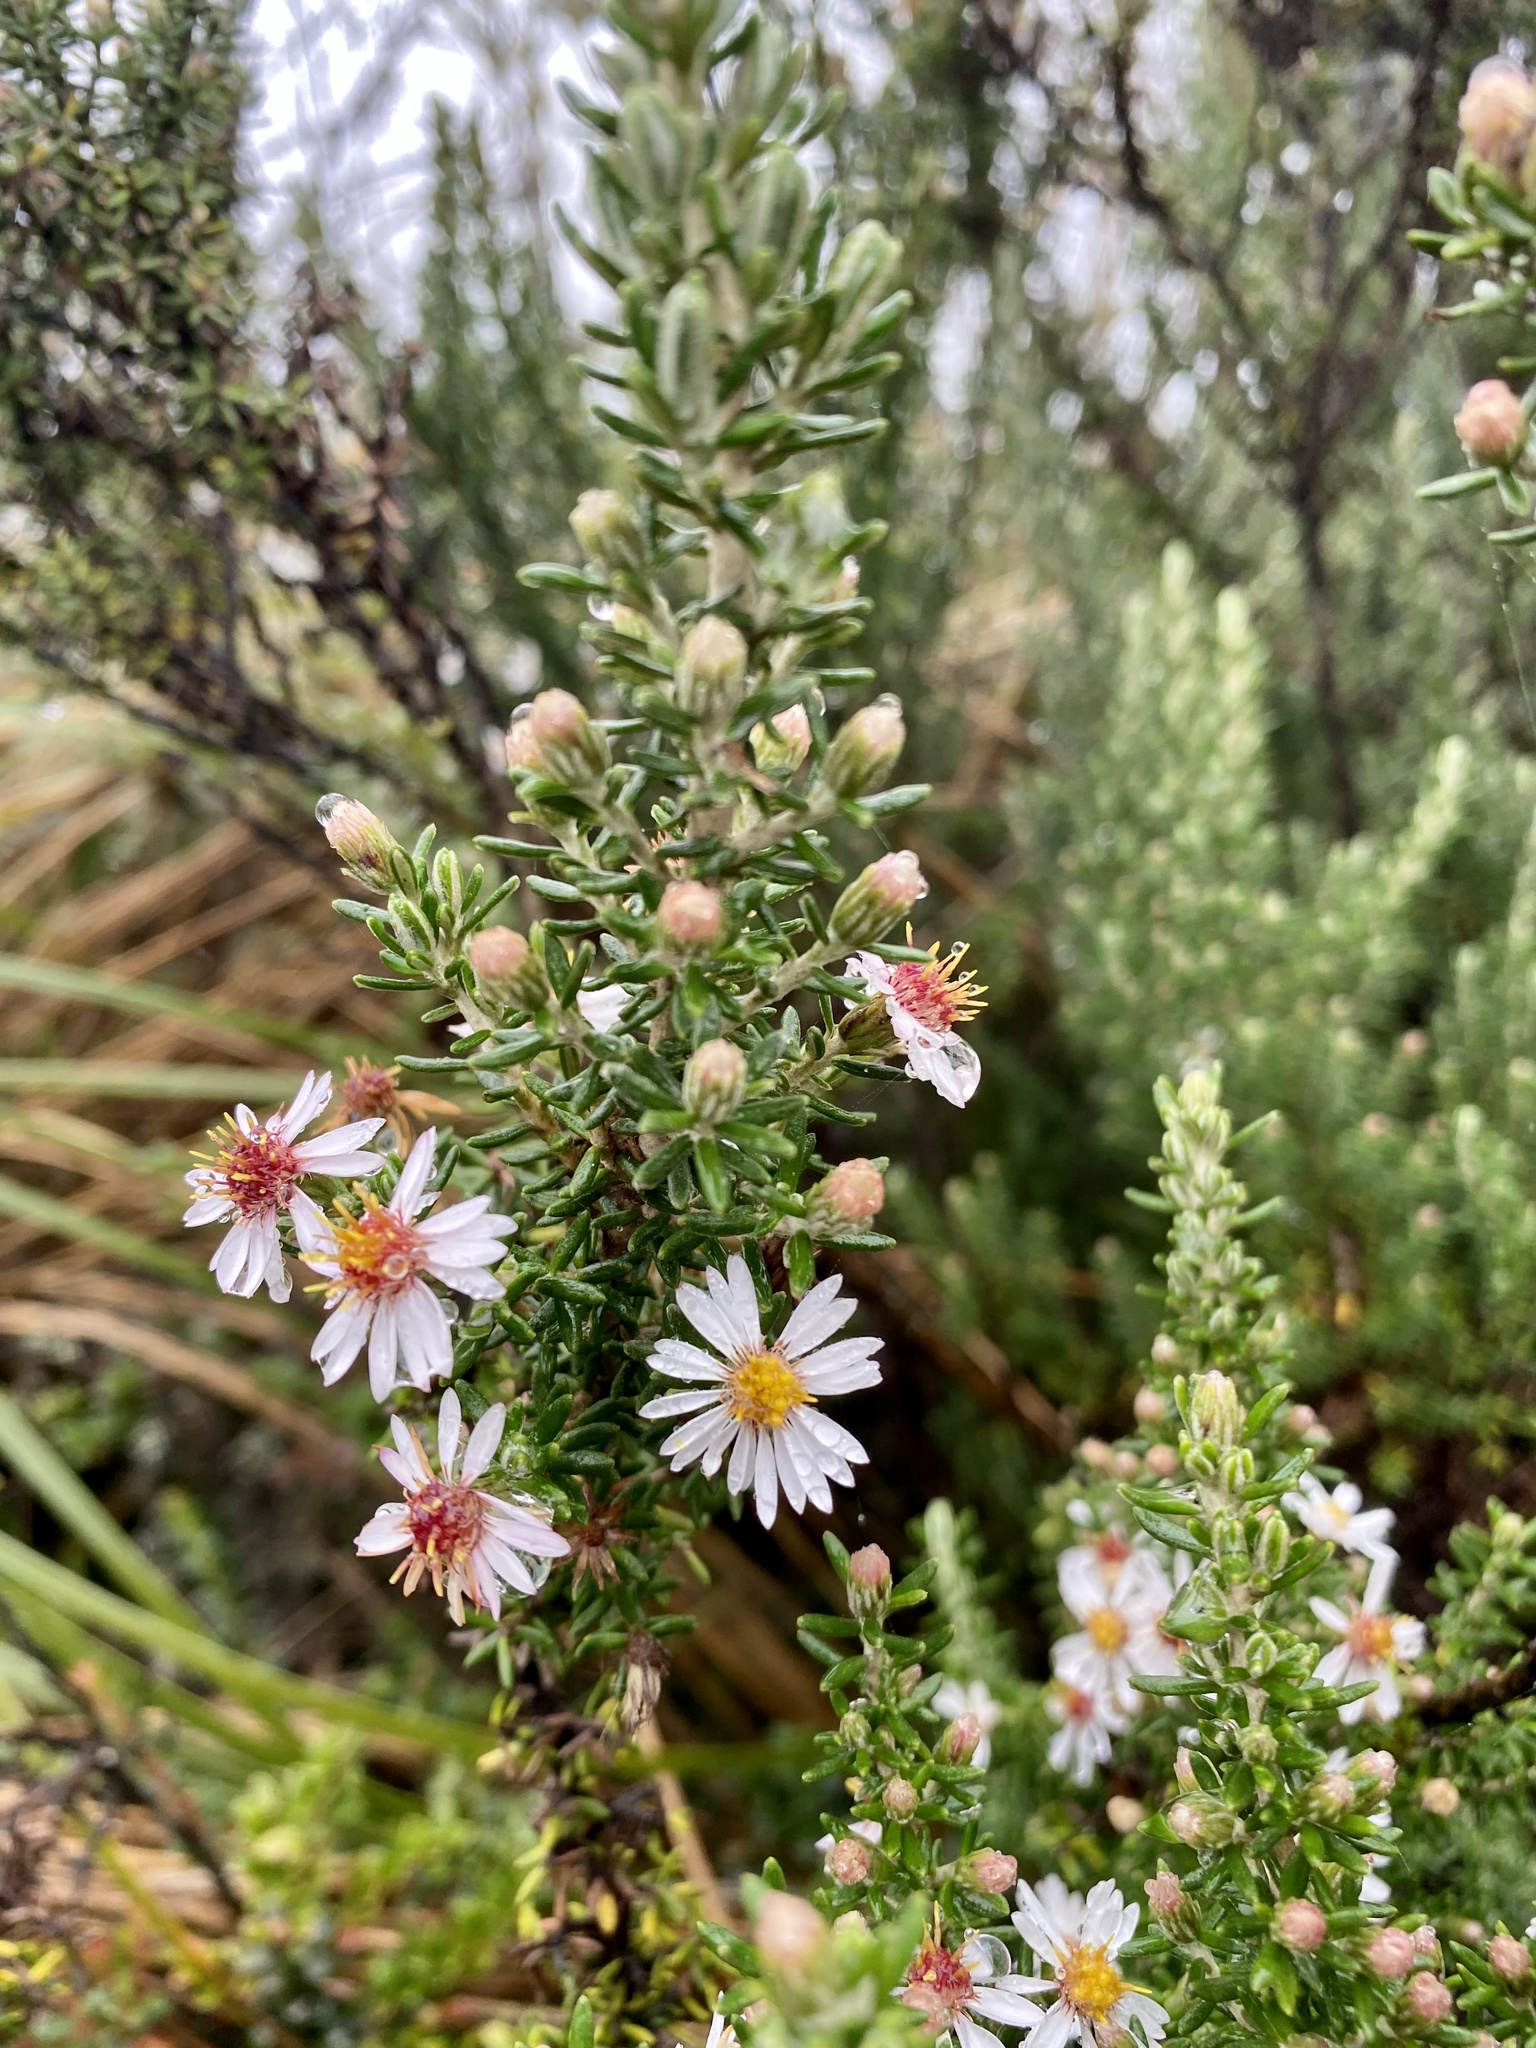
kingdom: Plantae
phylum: Tracheophyta
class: Magnoliopsida
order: Asterales
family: Asteraceae
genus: Diplostephium
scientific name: Diplostephium hartwegii
